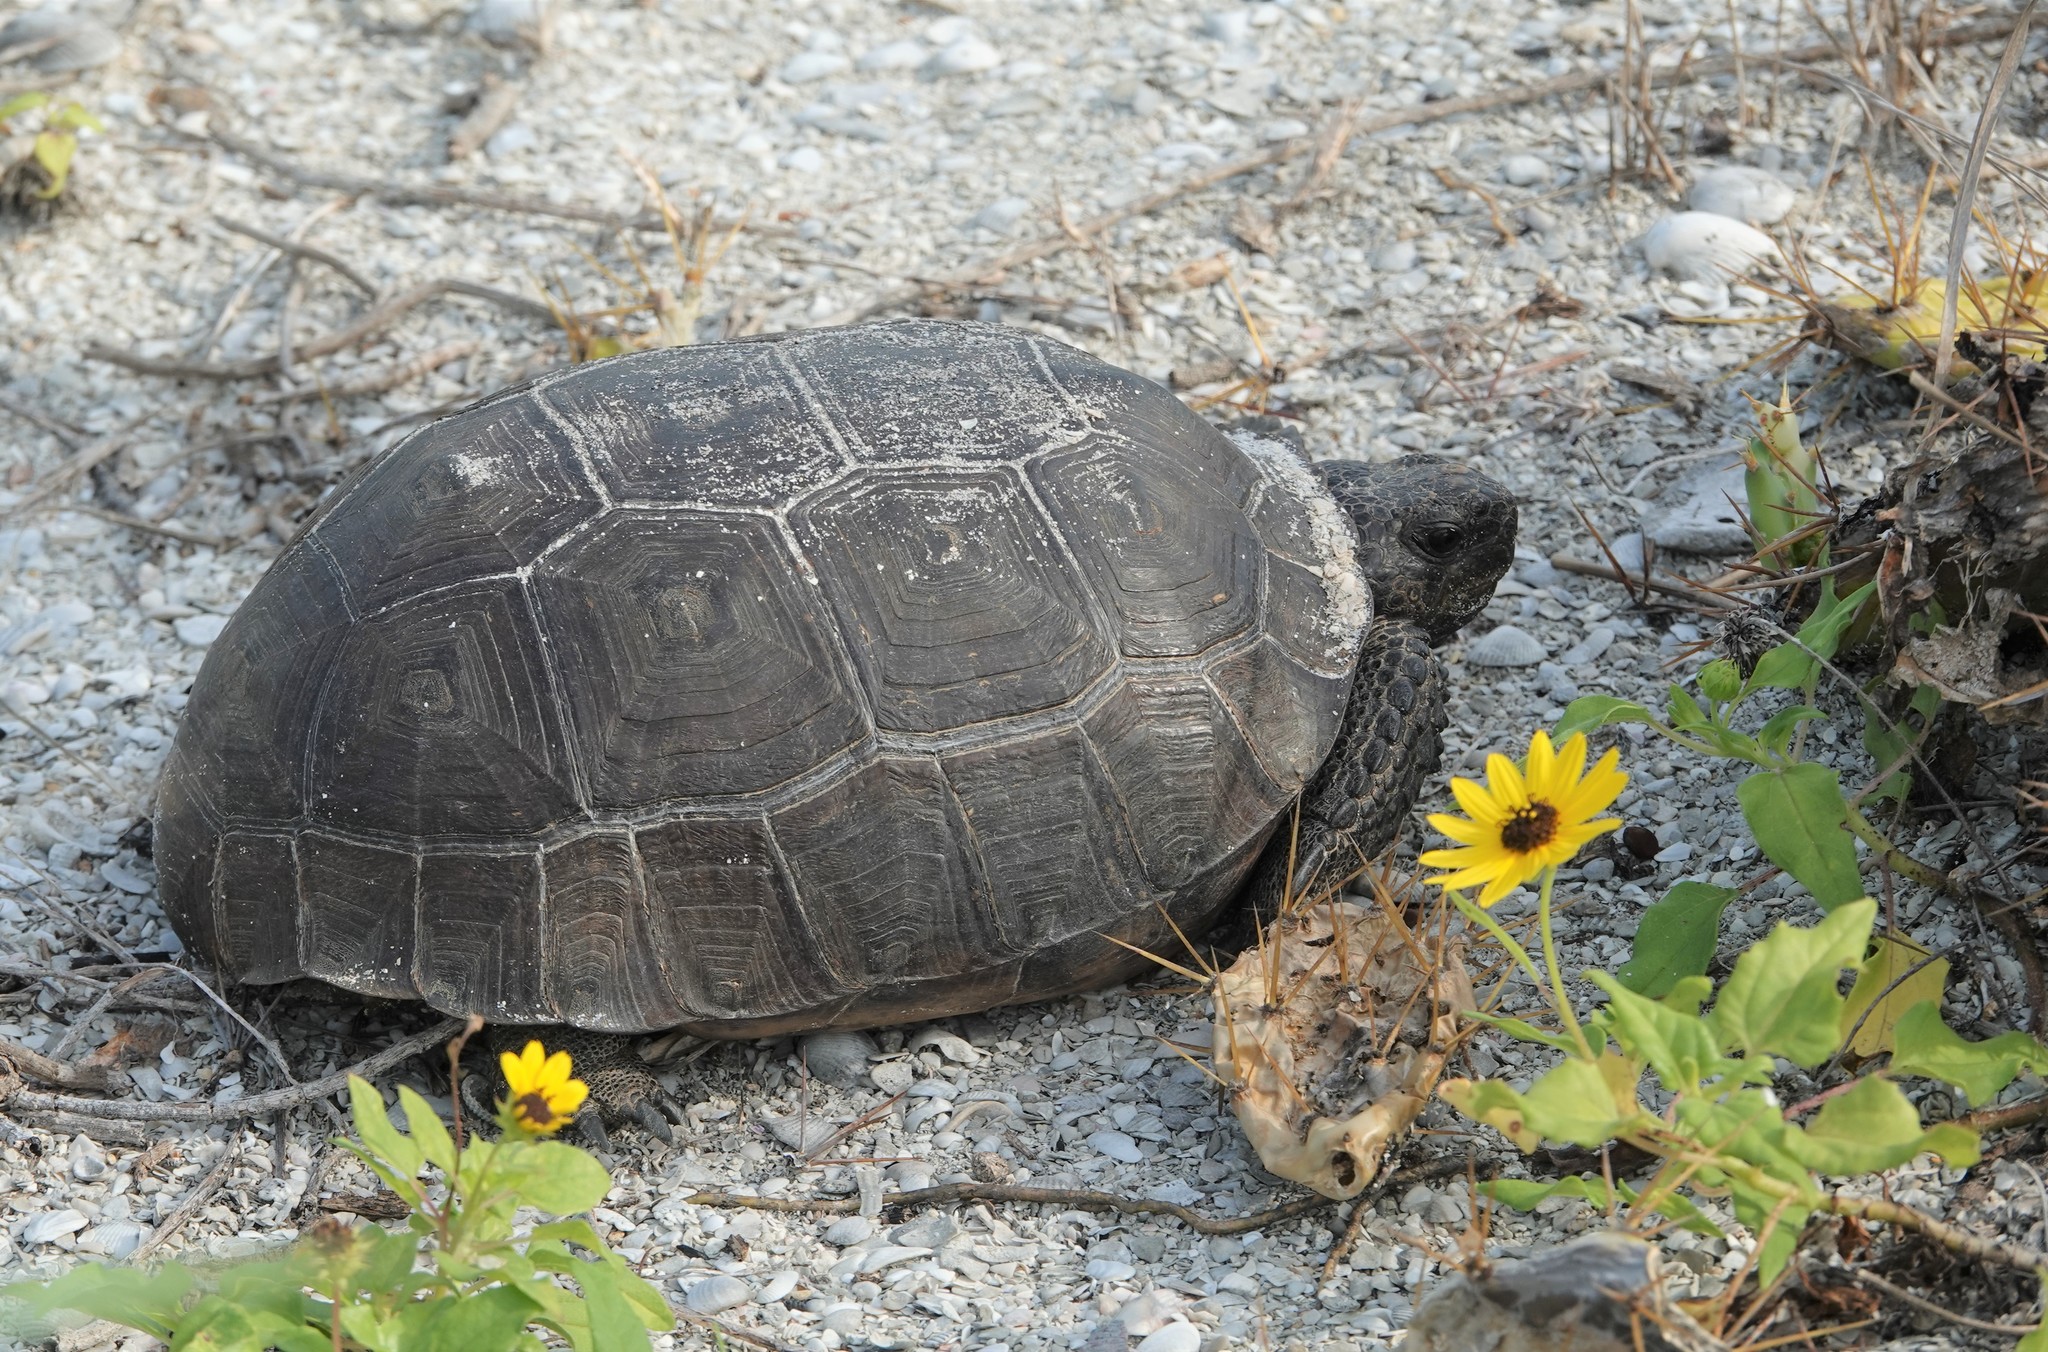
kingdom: Animalia
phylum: Chordata
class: Testudines
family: Testudinidae
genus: Gopherus
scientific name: Gopherus polyphemus
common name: Florida gopher tortoise
